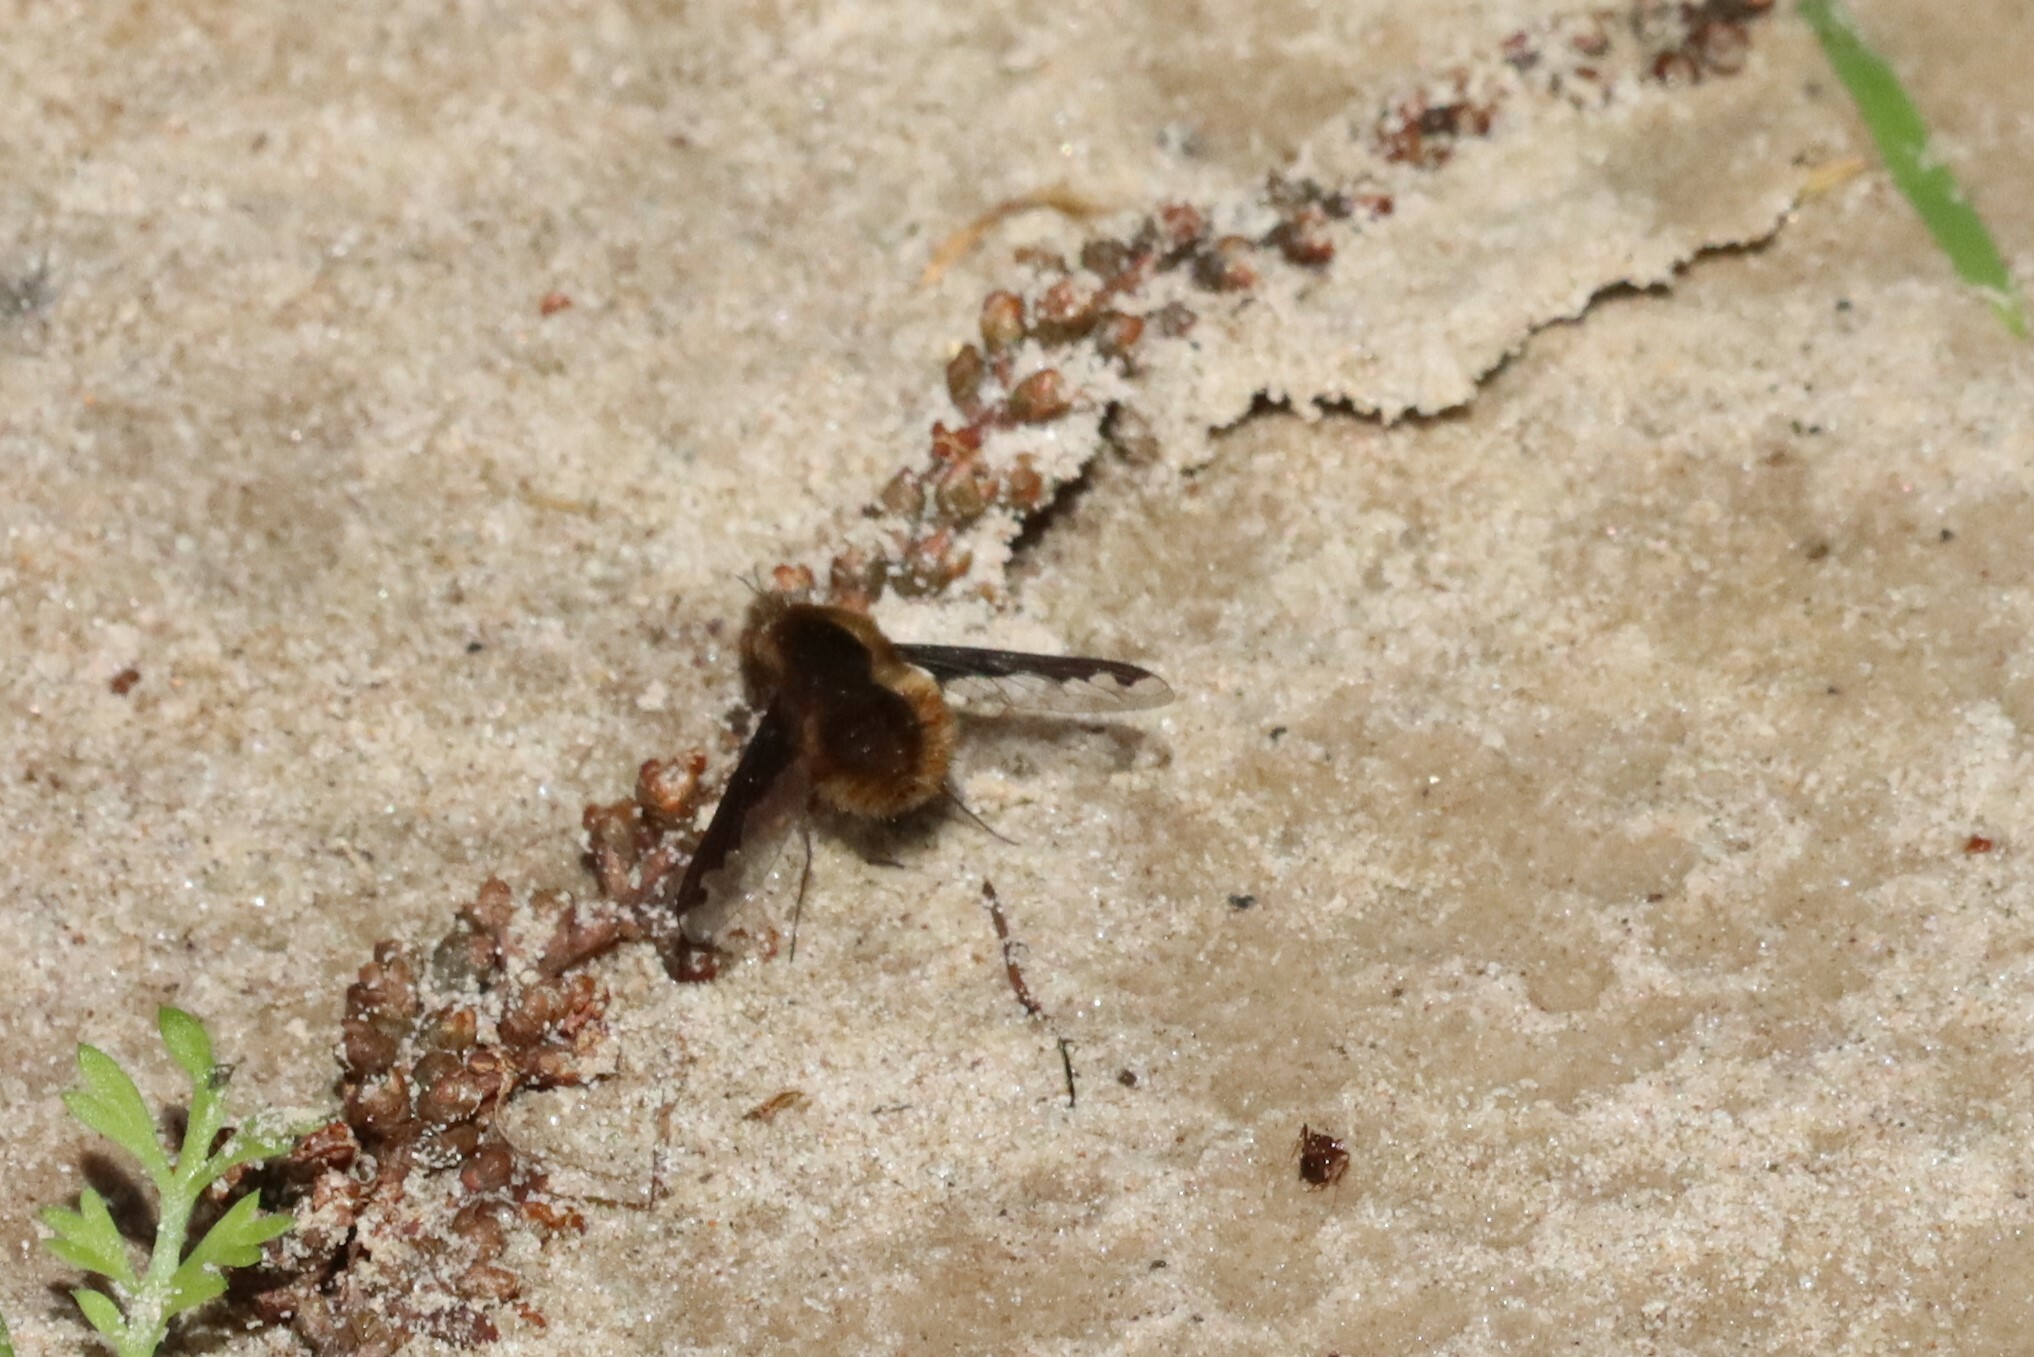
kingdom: Animalia
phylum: Arthropoda
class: Insecta
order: Diptera
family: Bombyliidae
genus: Bombylius
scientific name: Bombylius major
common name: Bee fly
